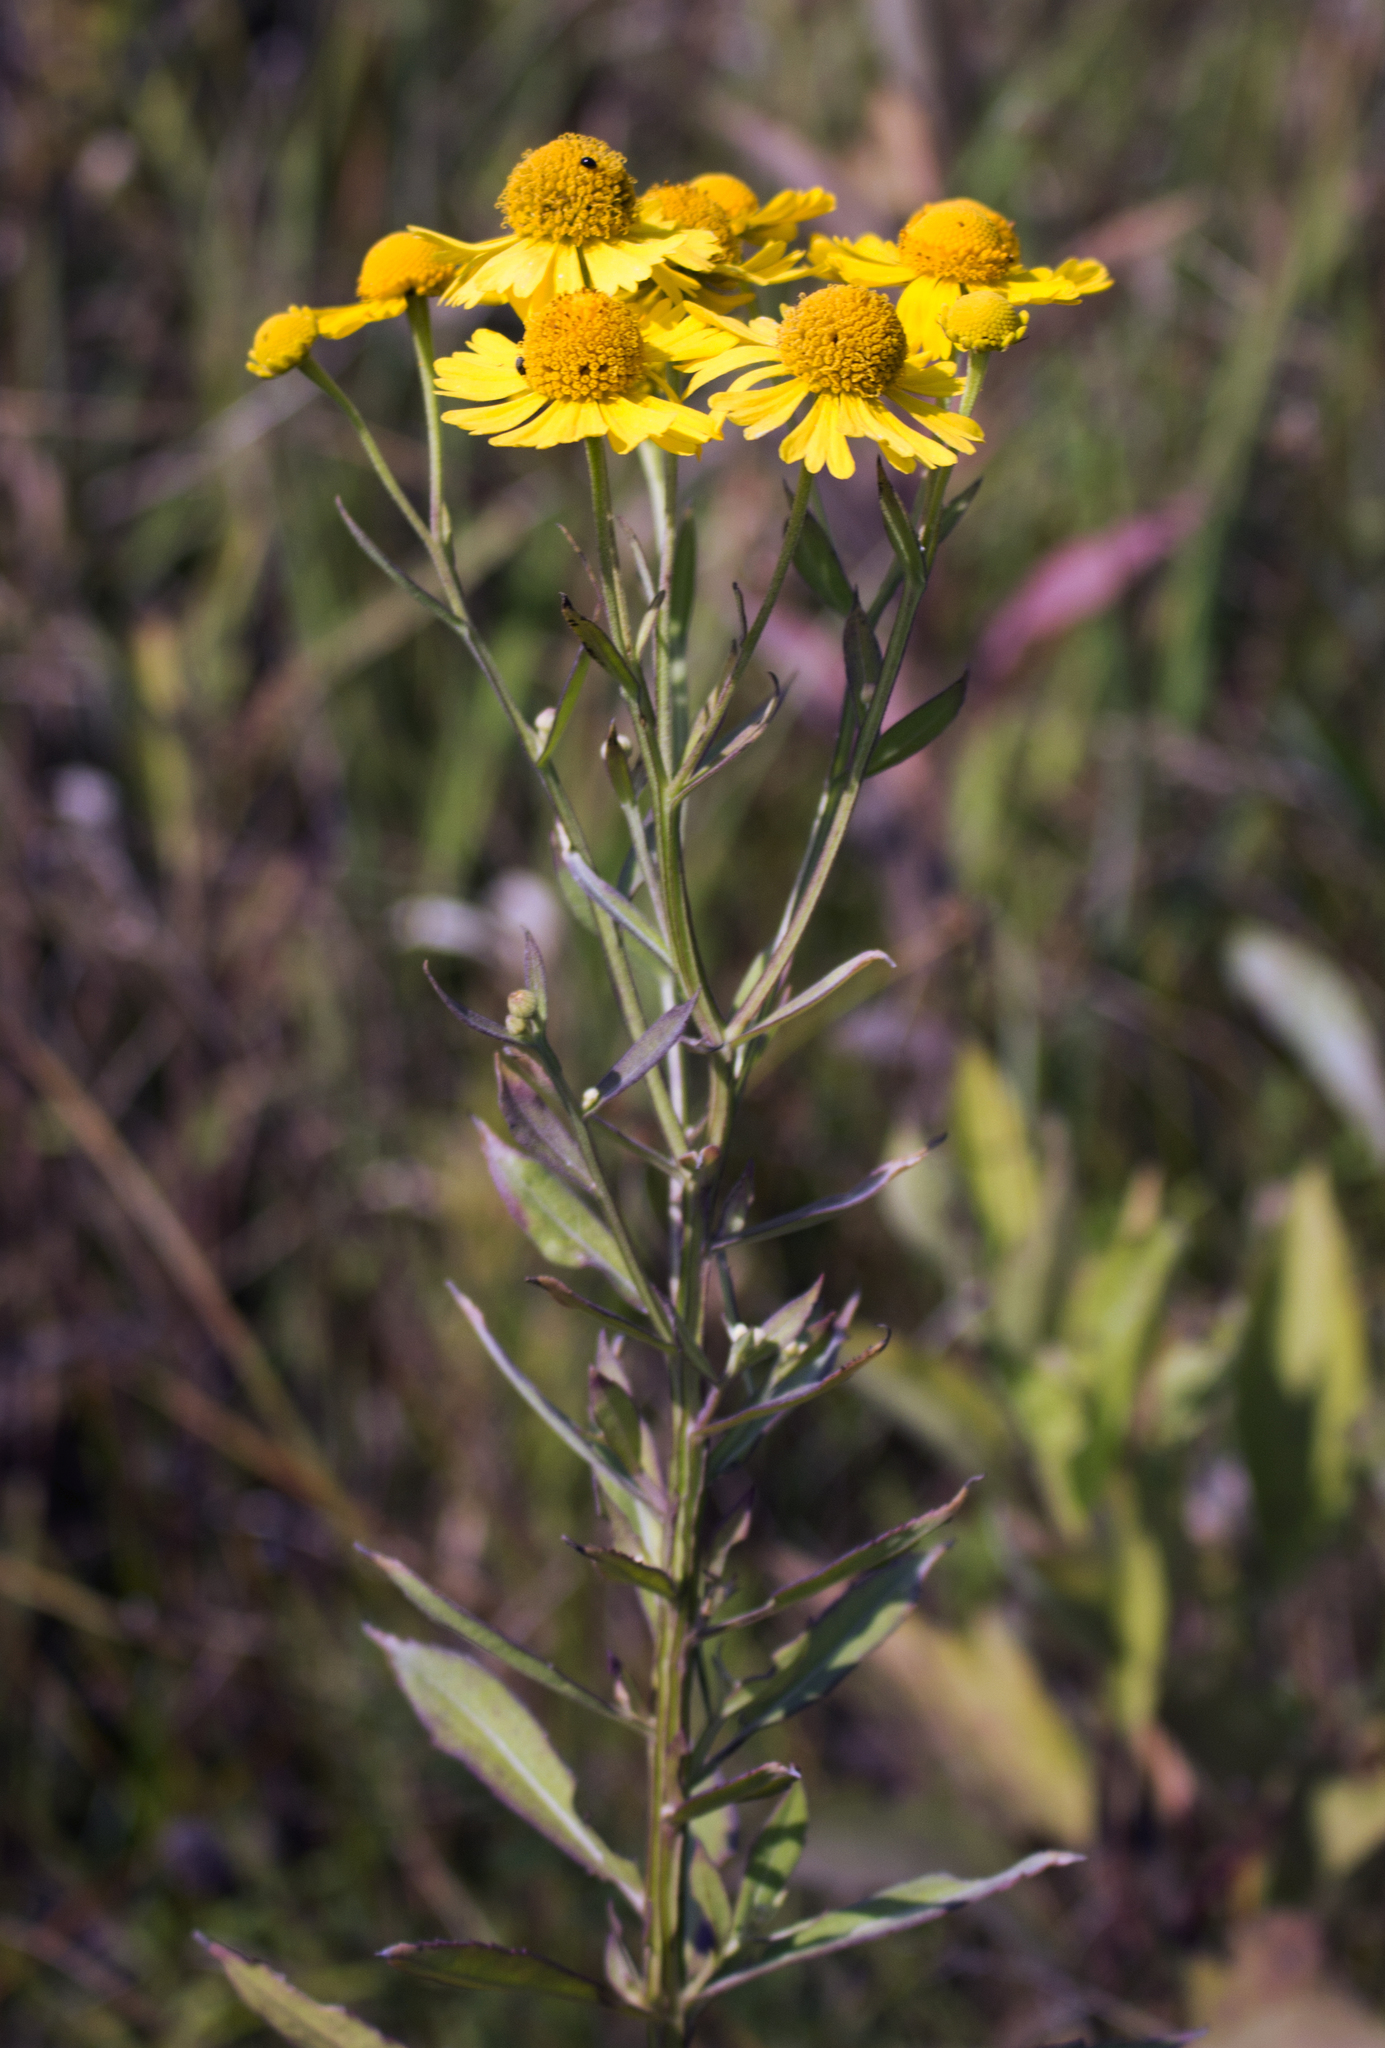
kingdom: Plantae
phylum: Tracheophyta
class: Magnoliopsida
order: Asterales
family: Asteraceae
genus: Helenium
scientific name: Helenium autumnale
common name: Sneezeweed
